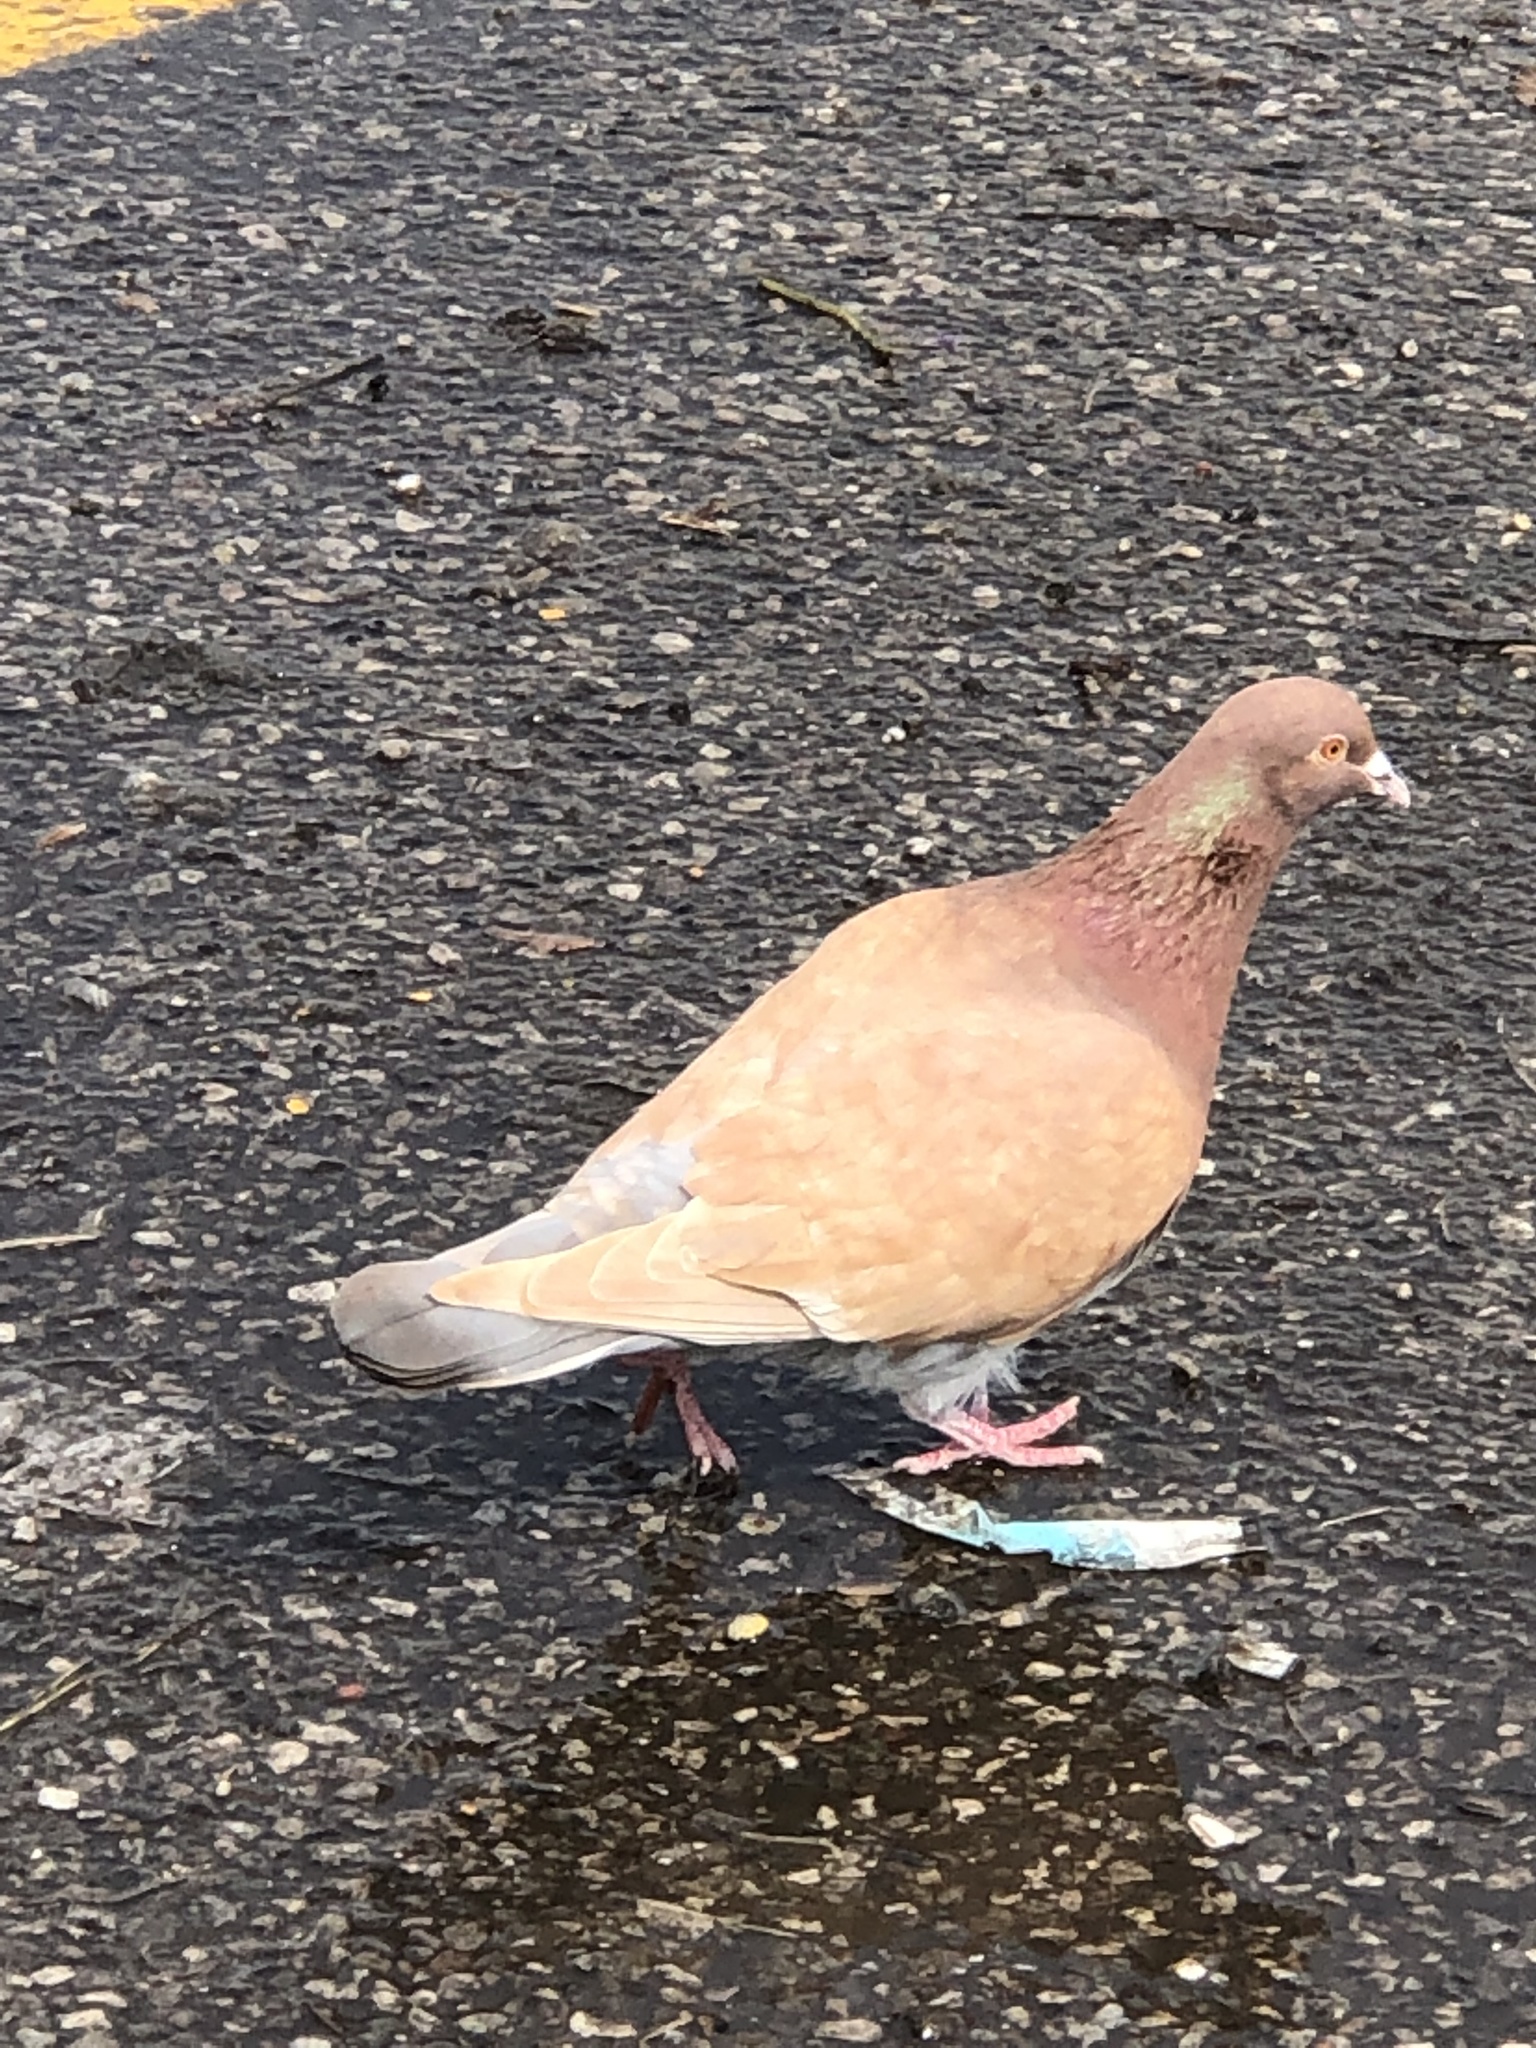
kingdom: Animalia
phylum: Chordata
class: Aves
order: Columbiformes
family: Columbidae
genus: Columba
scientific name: Columba livia
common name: Rock pigeon
